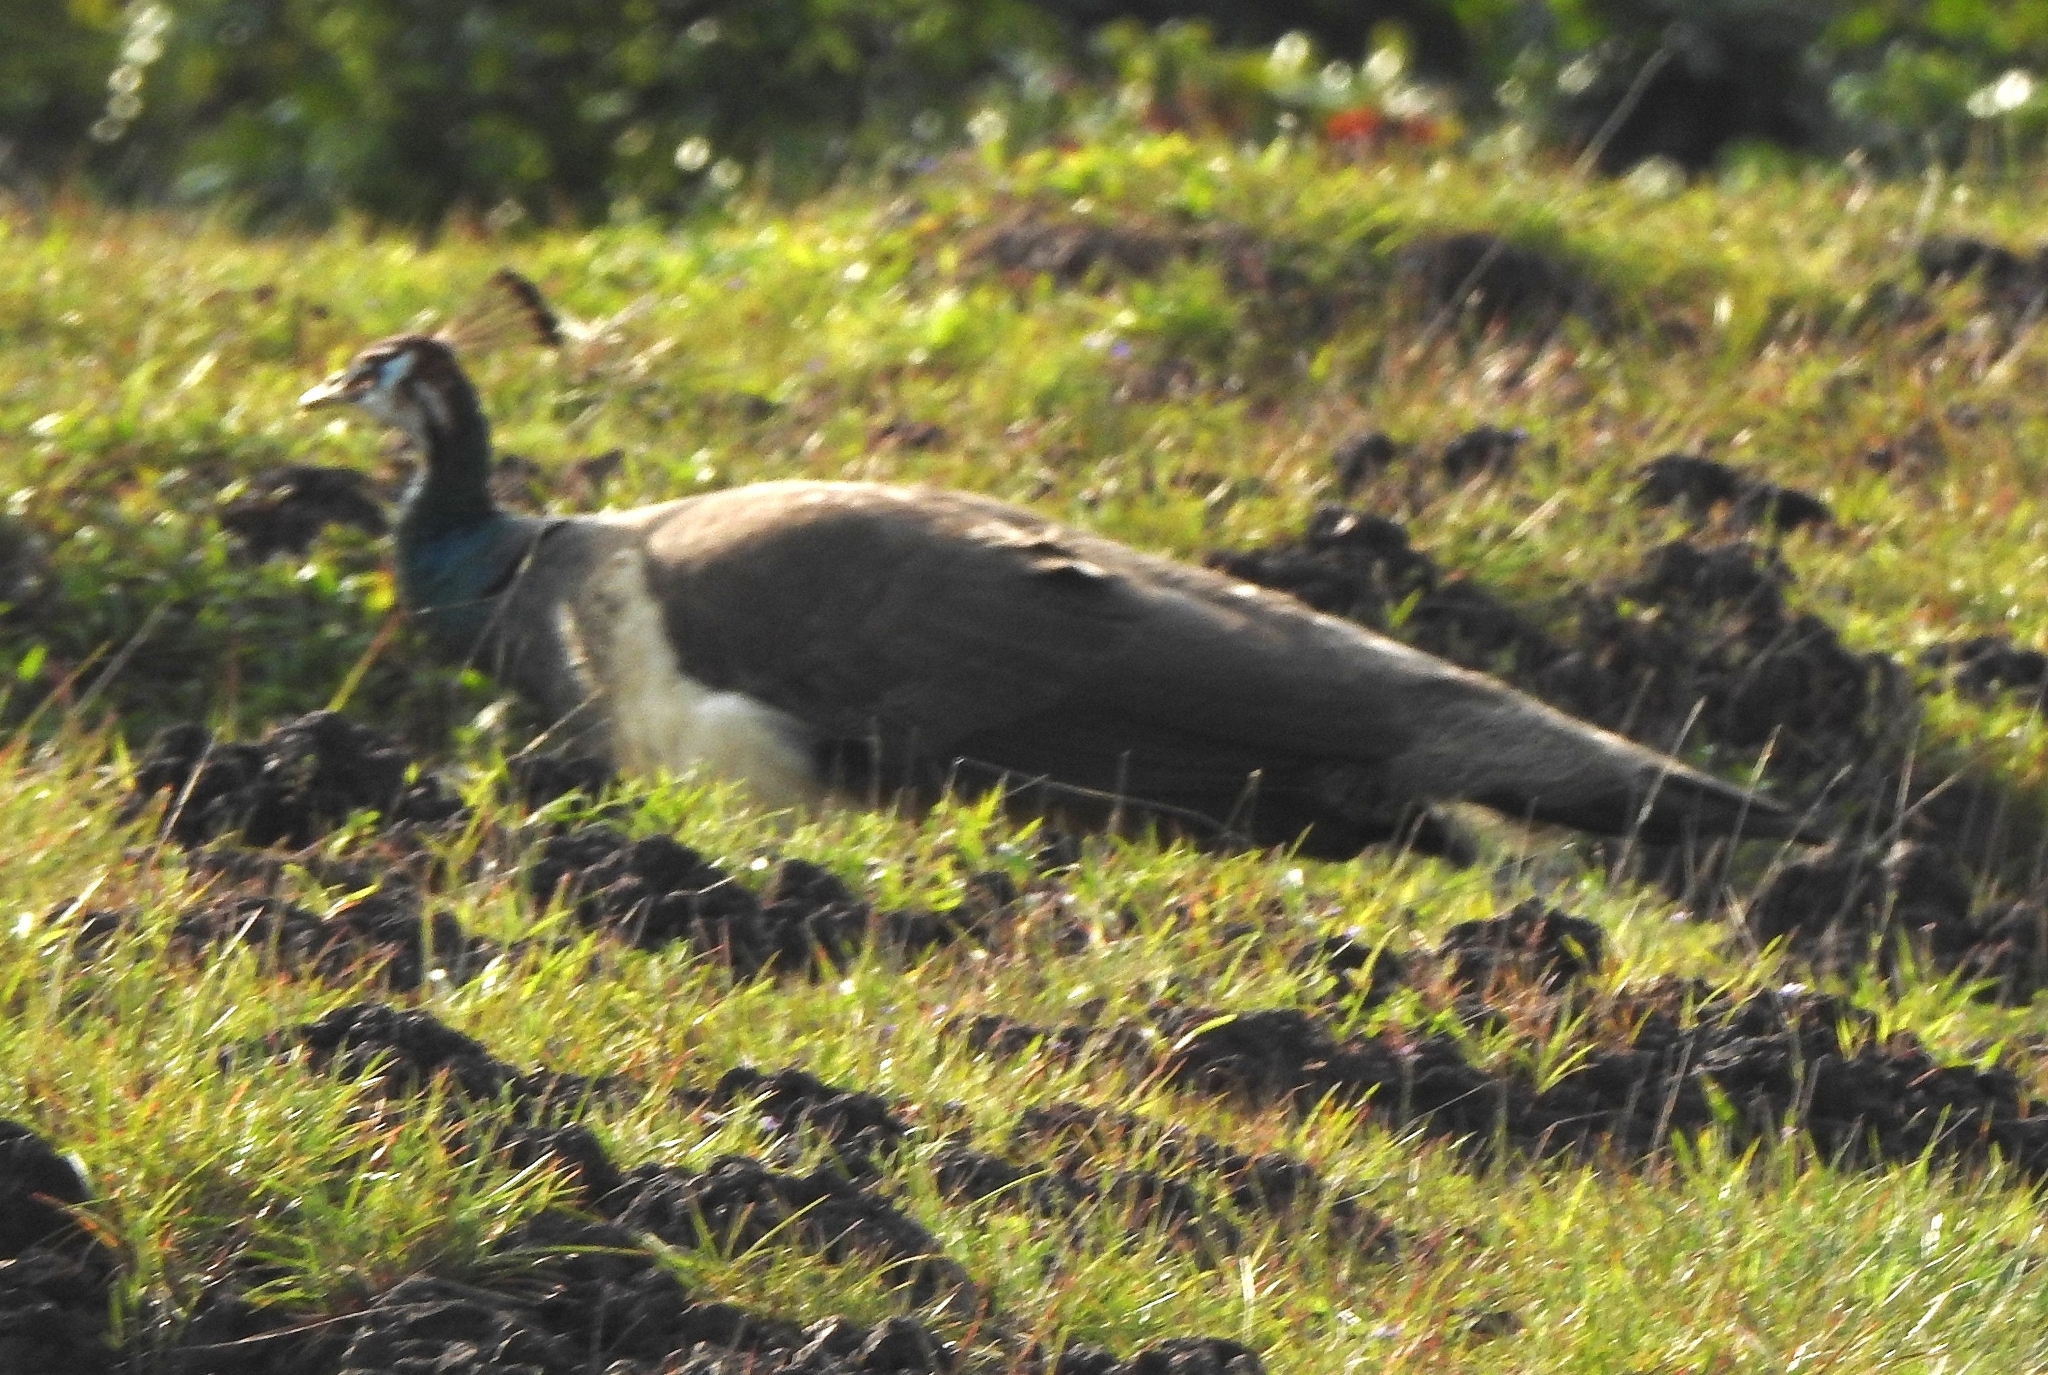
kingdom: Animalia
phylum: Chordata
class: Aves
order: Galliformes
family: Phasianidae
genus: Pavo
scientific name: Pavo cristatus
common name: Indian peafowl
